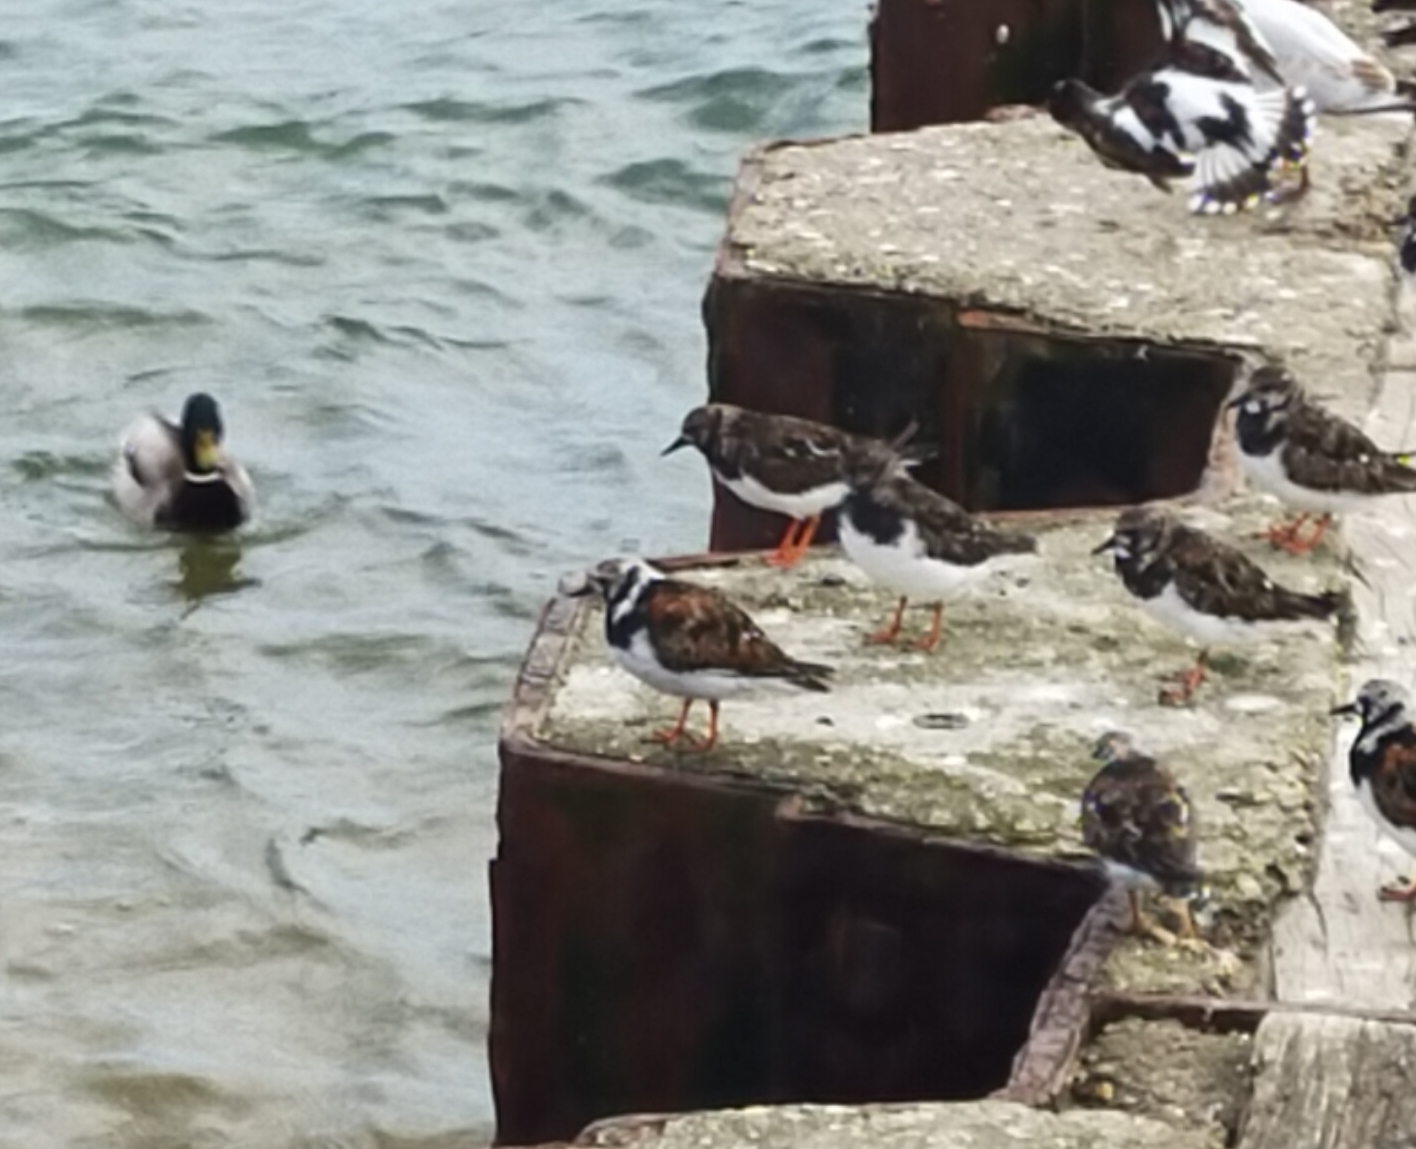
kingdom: Animalia
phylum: Chordata
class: Aves
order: Charadriiformes
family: Scolopacidae
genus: Arenaria
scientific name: Arenaria interpres
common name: Ruddy turnstone
